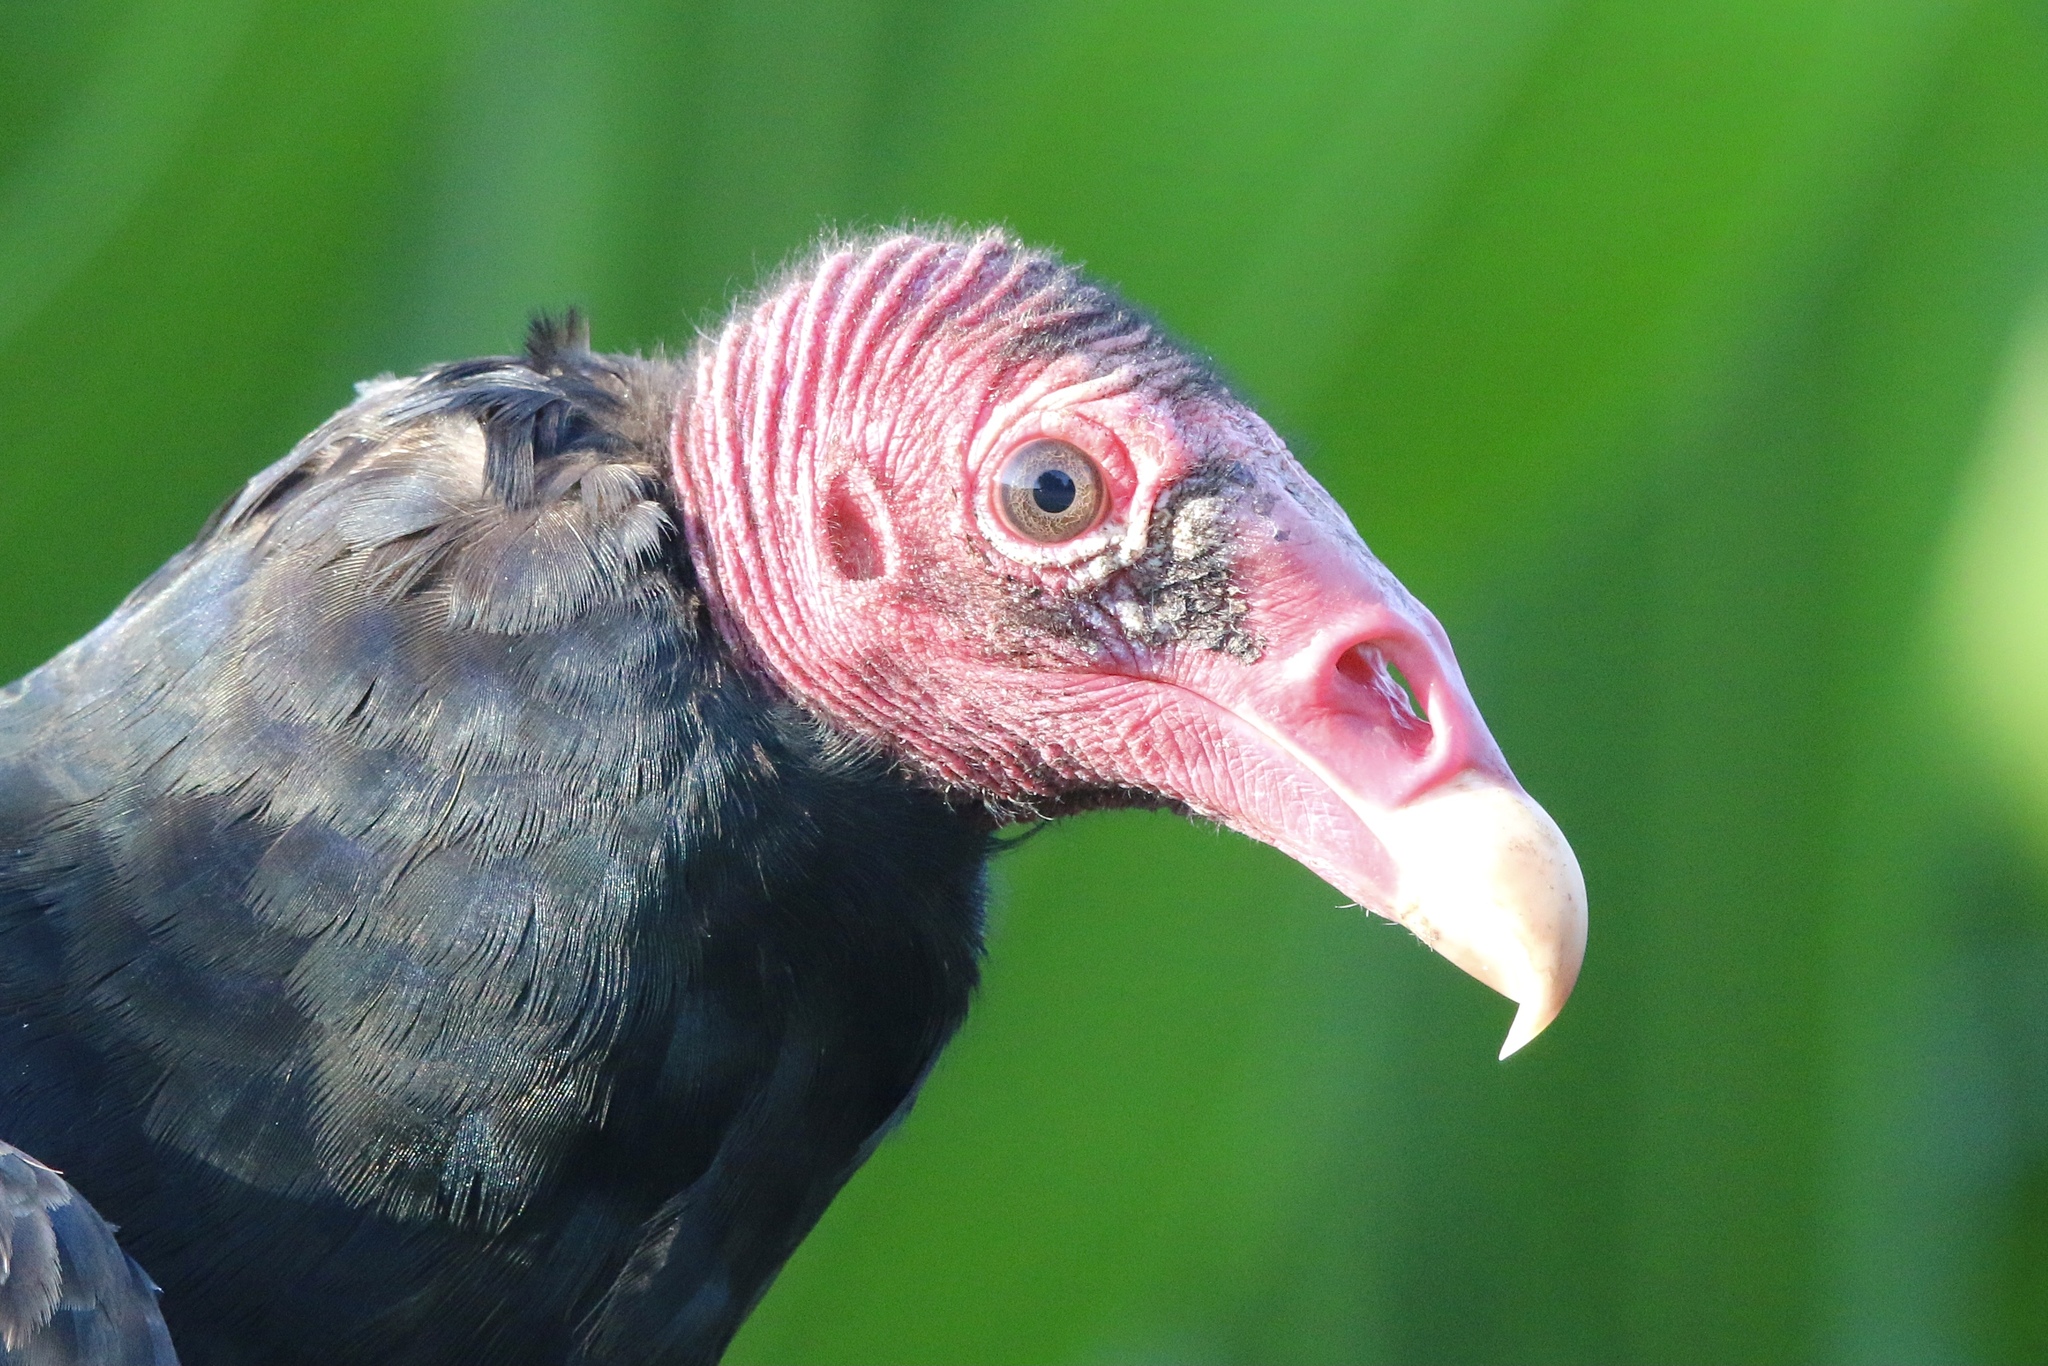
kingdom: Animalia
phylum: Chordata
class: Aves
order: Accipitriformes
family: Cathartidae
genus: Cathartes
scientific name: Cathartes aura
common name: Turkey vulture
